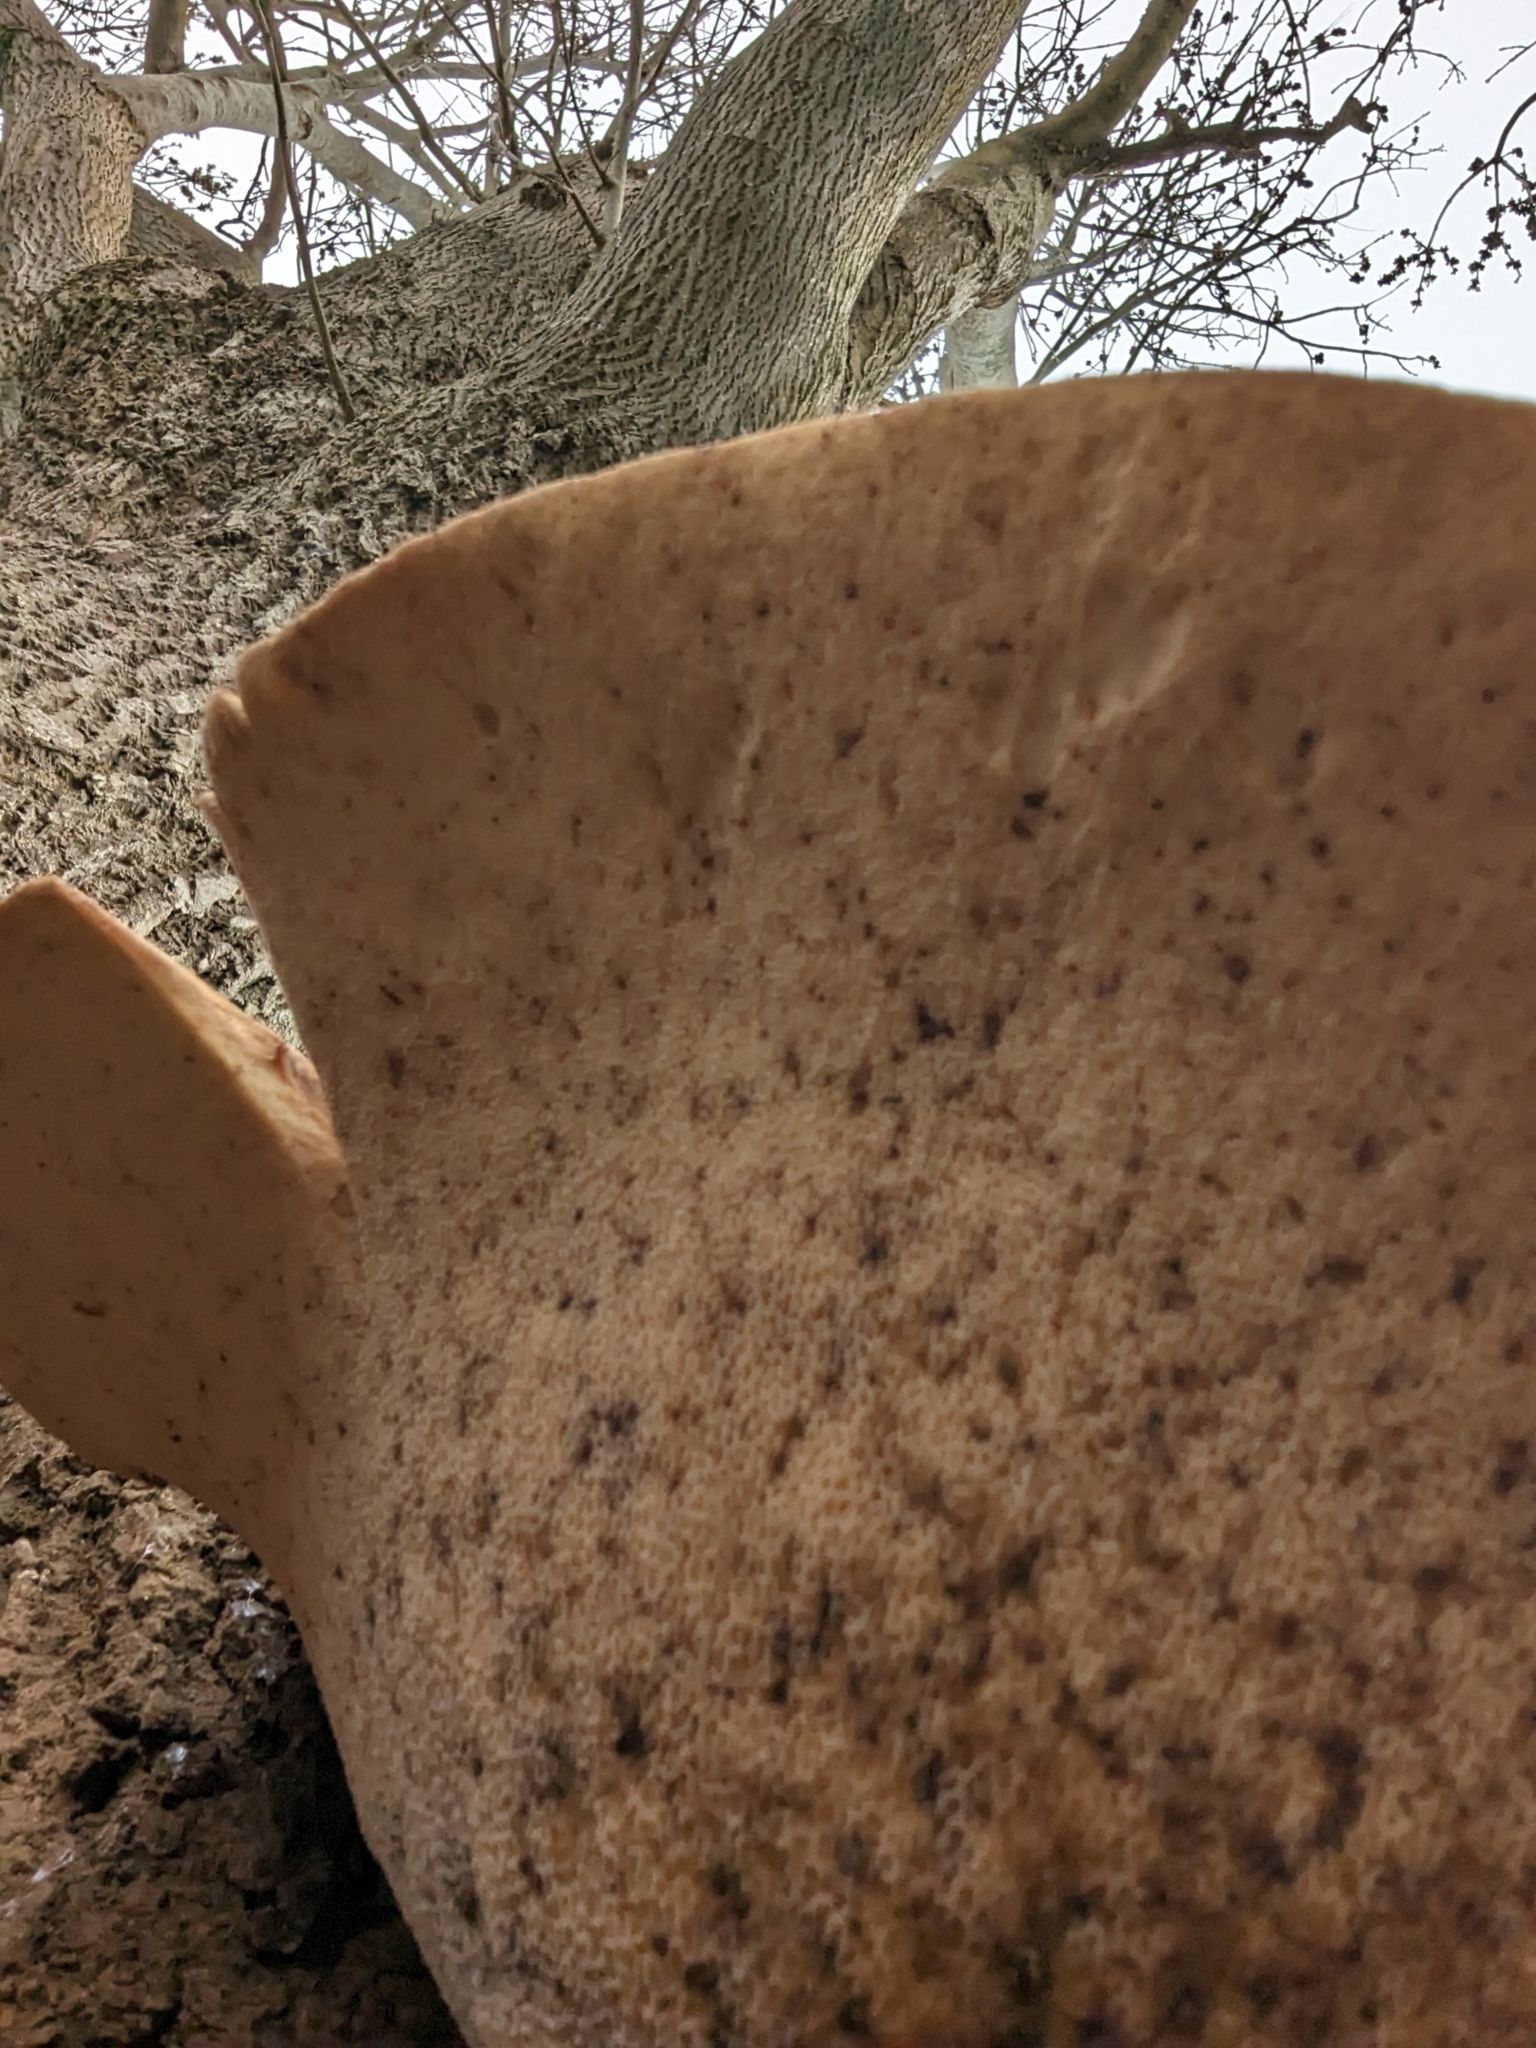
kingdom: Fungi
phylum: Basidiomycota
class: Agaricomycetes
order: Polyporales
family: Polyporaceae
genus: Cerioporus
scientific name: Cerioporus squamosus
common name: Dryad's saddle
